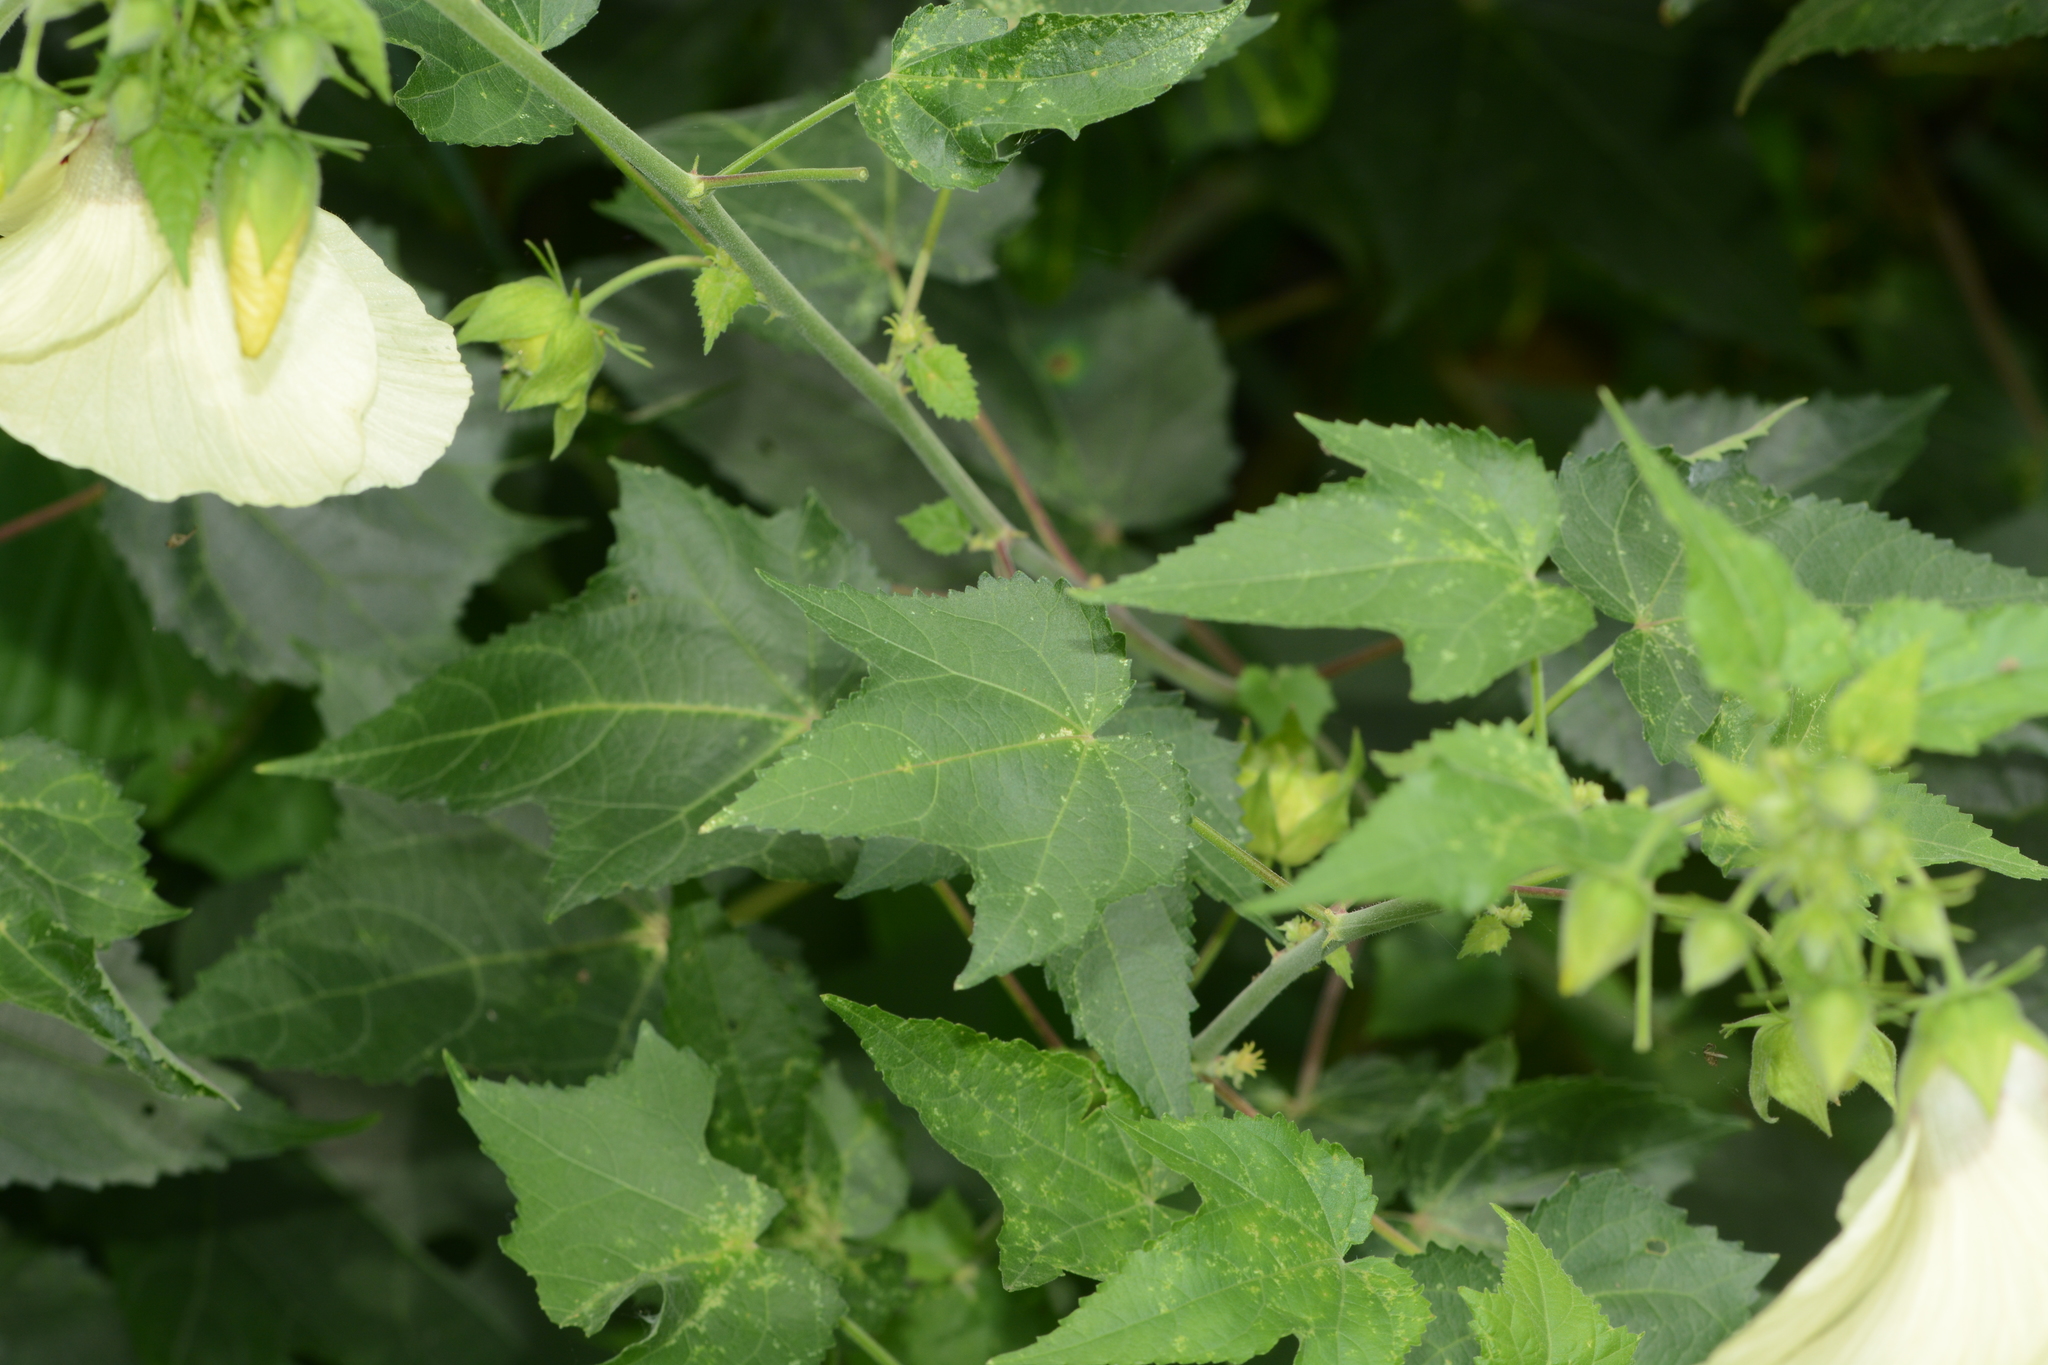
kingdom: Plantae
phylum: Tracheophyta
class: Magnoliopsida
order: Malvales
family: Malvaceae
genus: Hibiscus
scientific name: Hibiscus vitifolius
